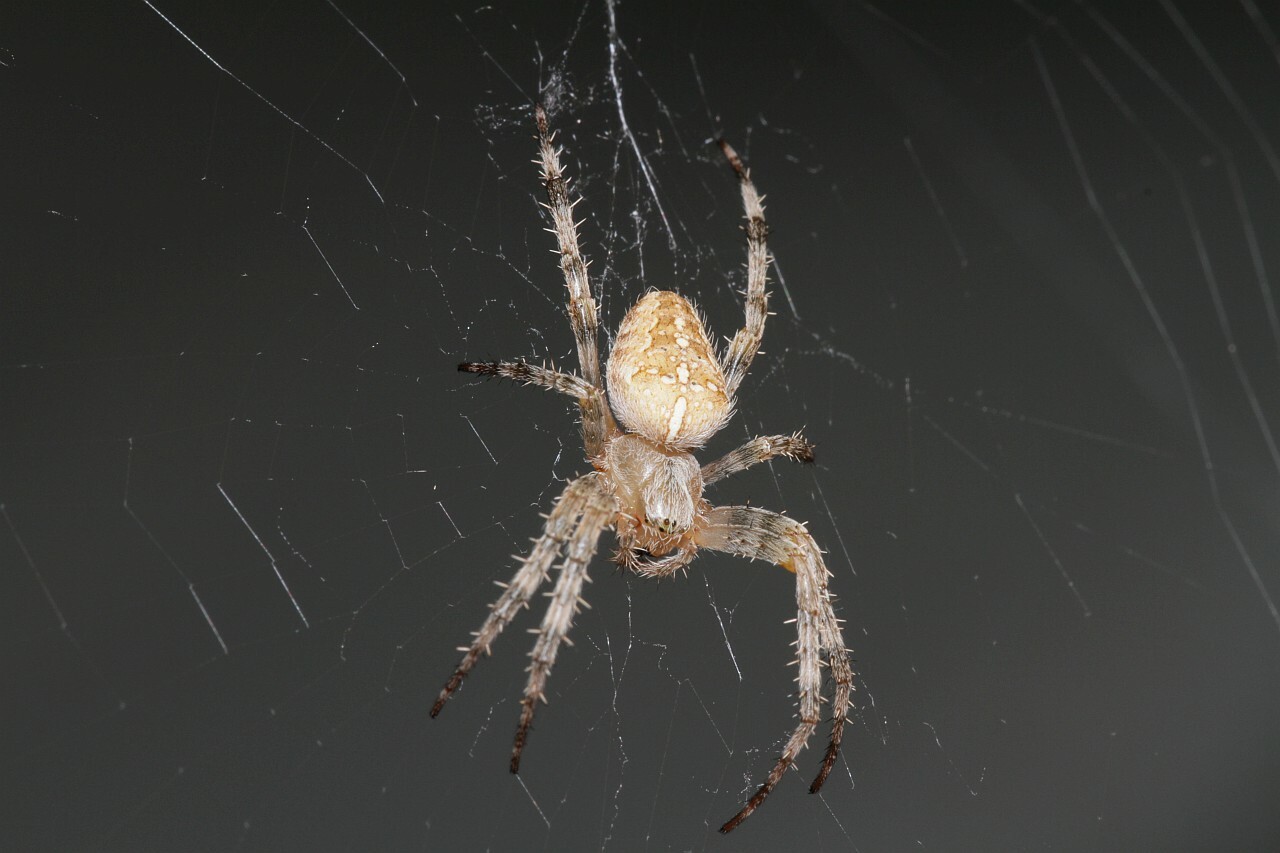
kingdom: Animalia
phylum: Arthropoda
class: Arachnida
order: Araneae
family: Araneidae
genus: Araneus
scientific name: Araneus diadematus
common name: Cross orbweaver
